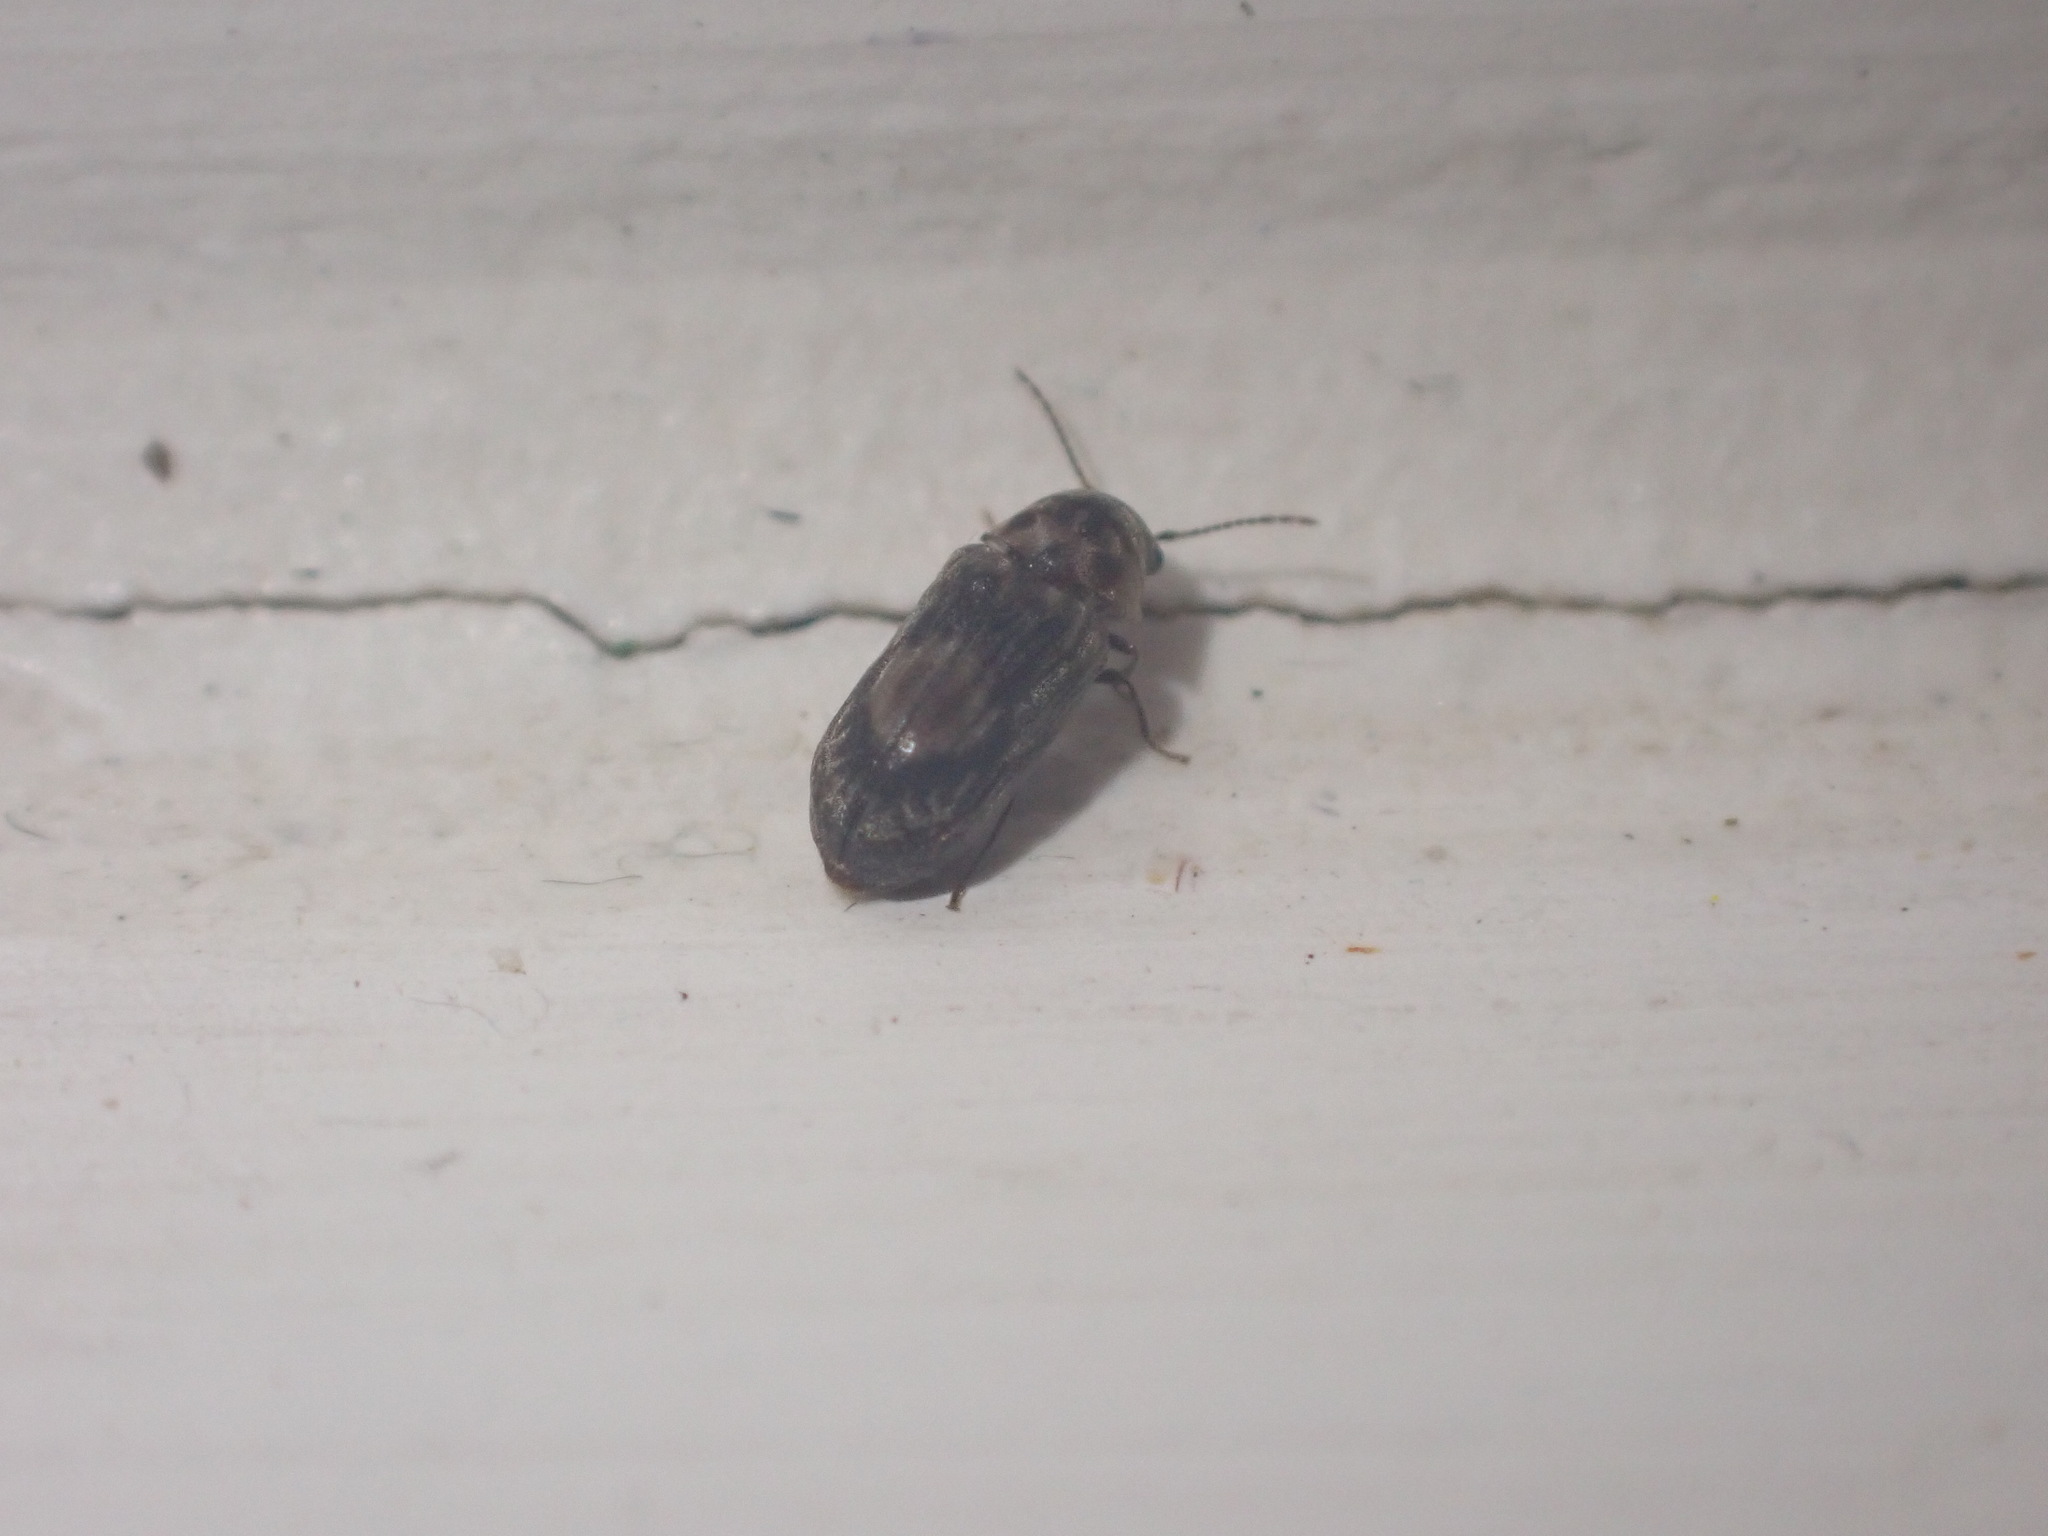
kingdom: Animalia
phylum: Arthropoda
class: Insecta
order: Coleoptera
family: Ptinidae
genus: Leanobium
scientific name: Leanobium
